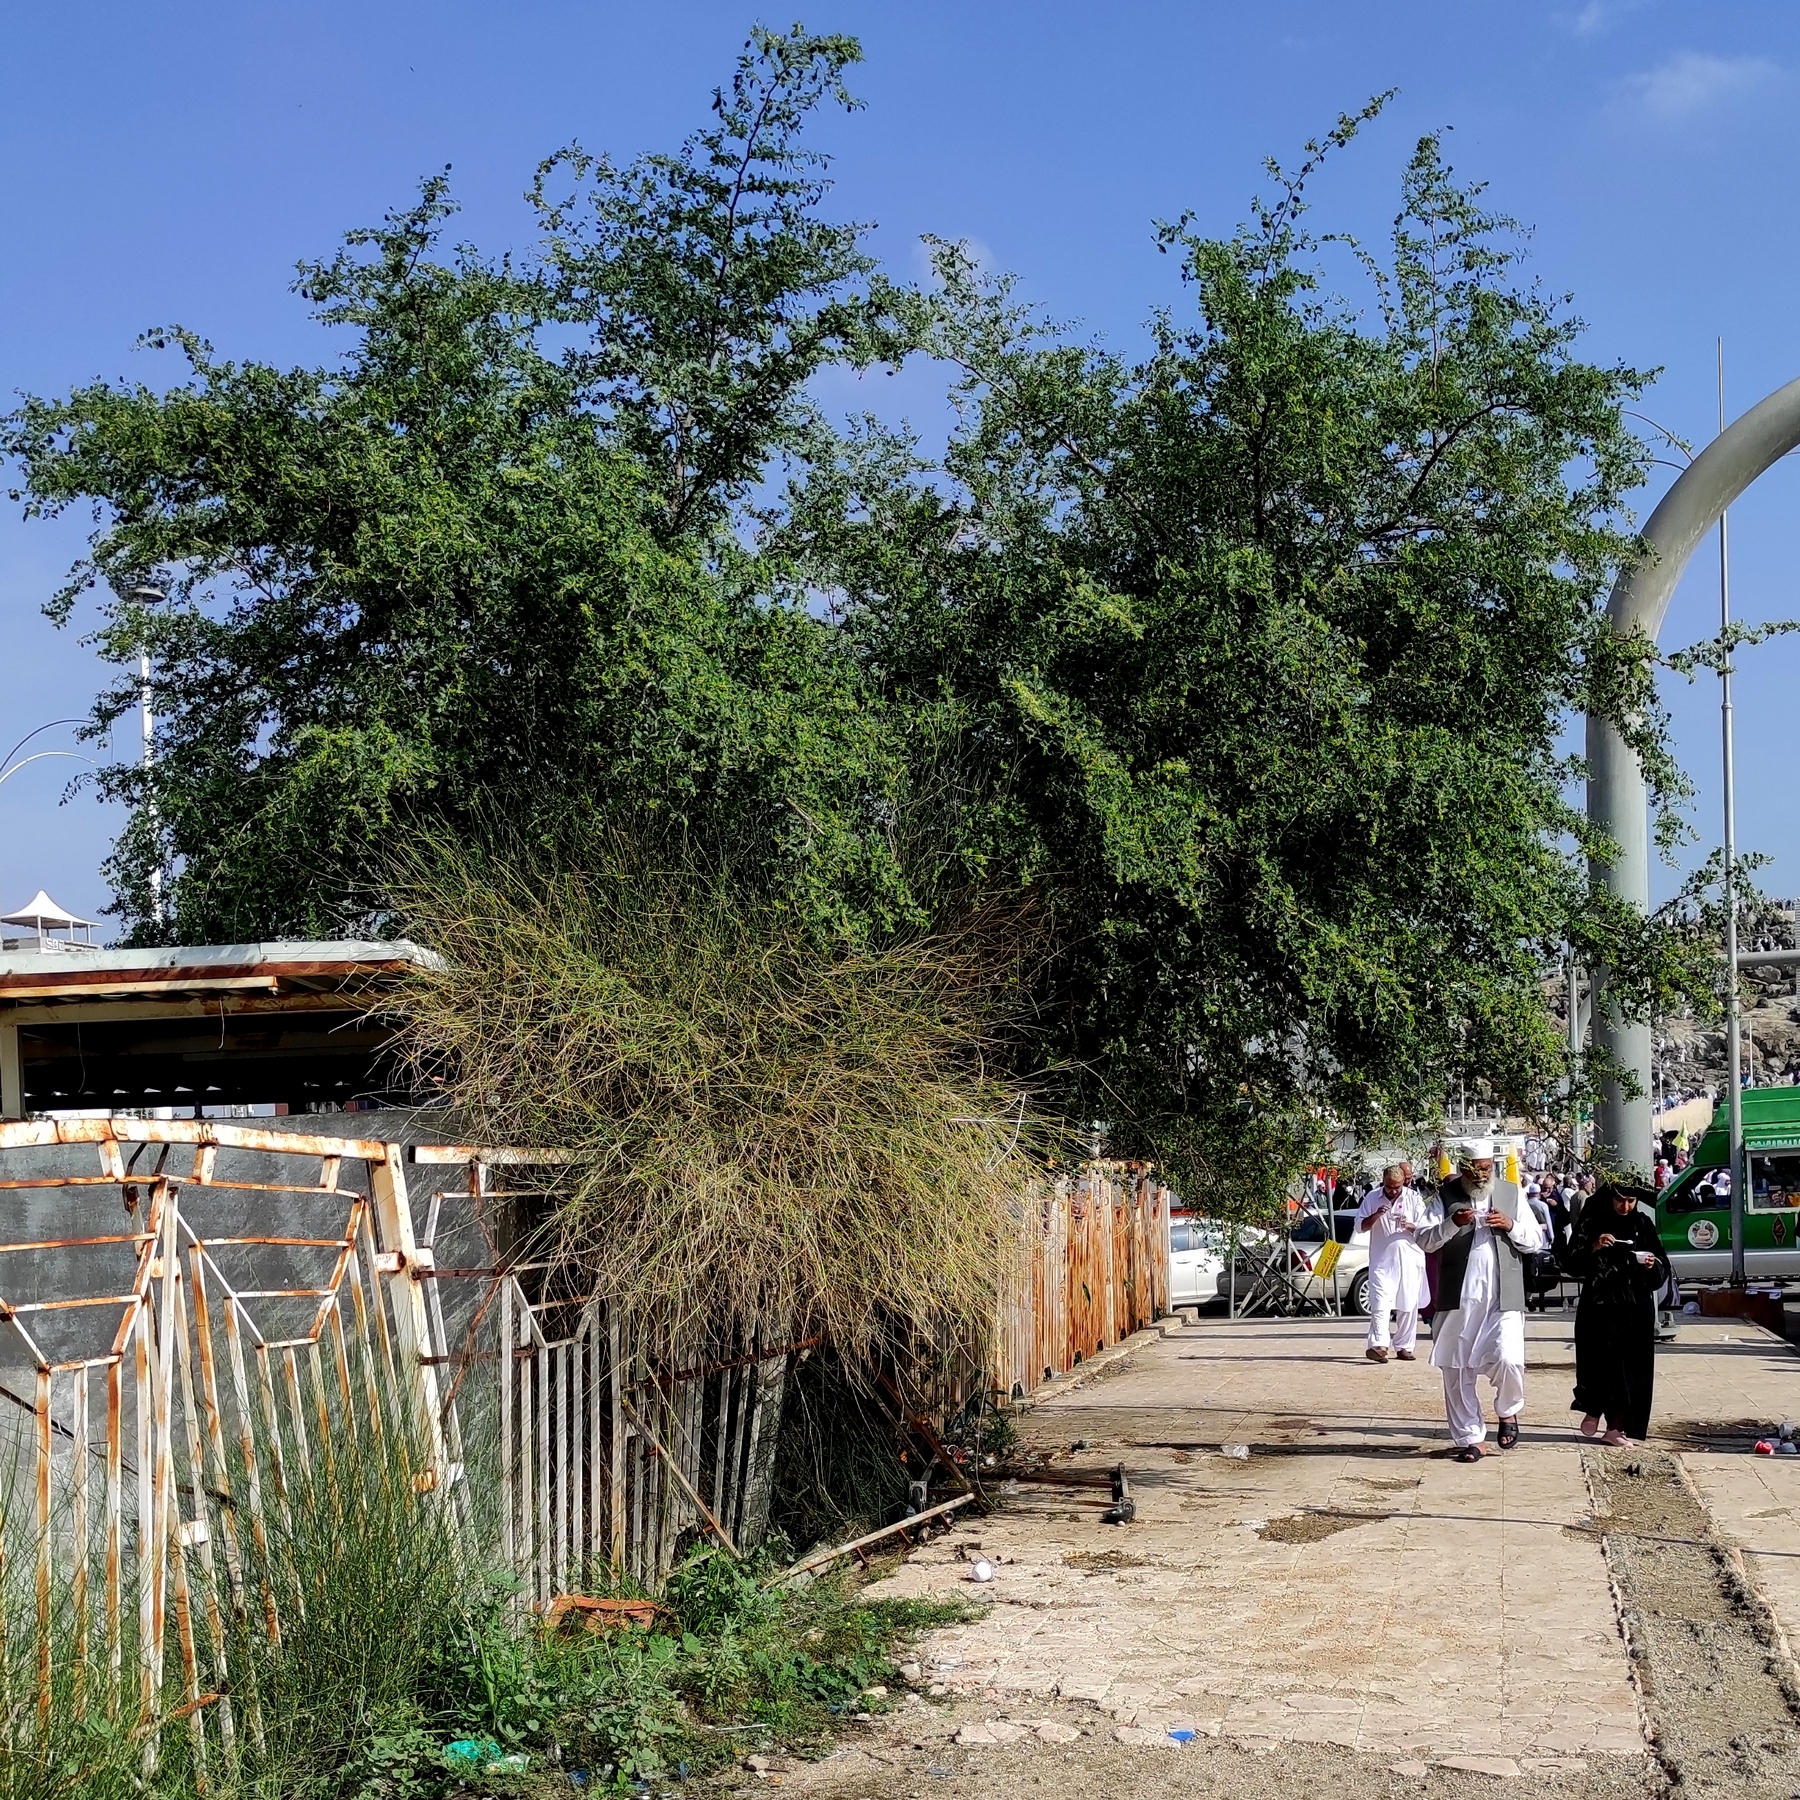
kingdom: Plantae
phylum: Tracheophyta
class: Magnoliopsida
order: Rosales
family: Rhamnaceae
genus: Ziziphus
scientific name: Ziziphus spina-christi
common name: Syrian christ-thorn
